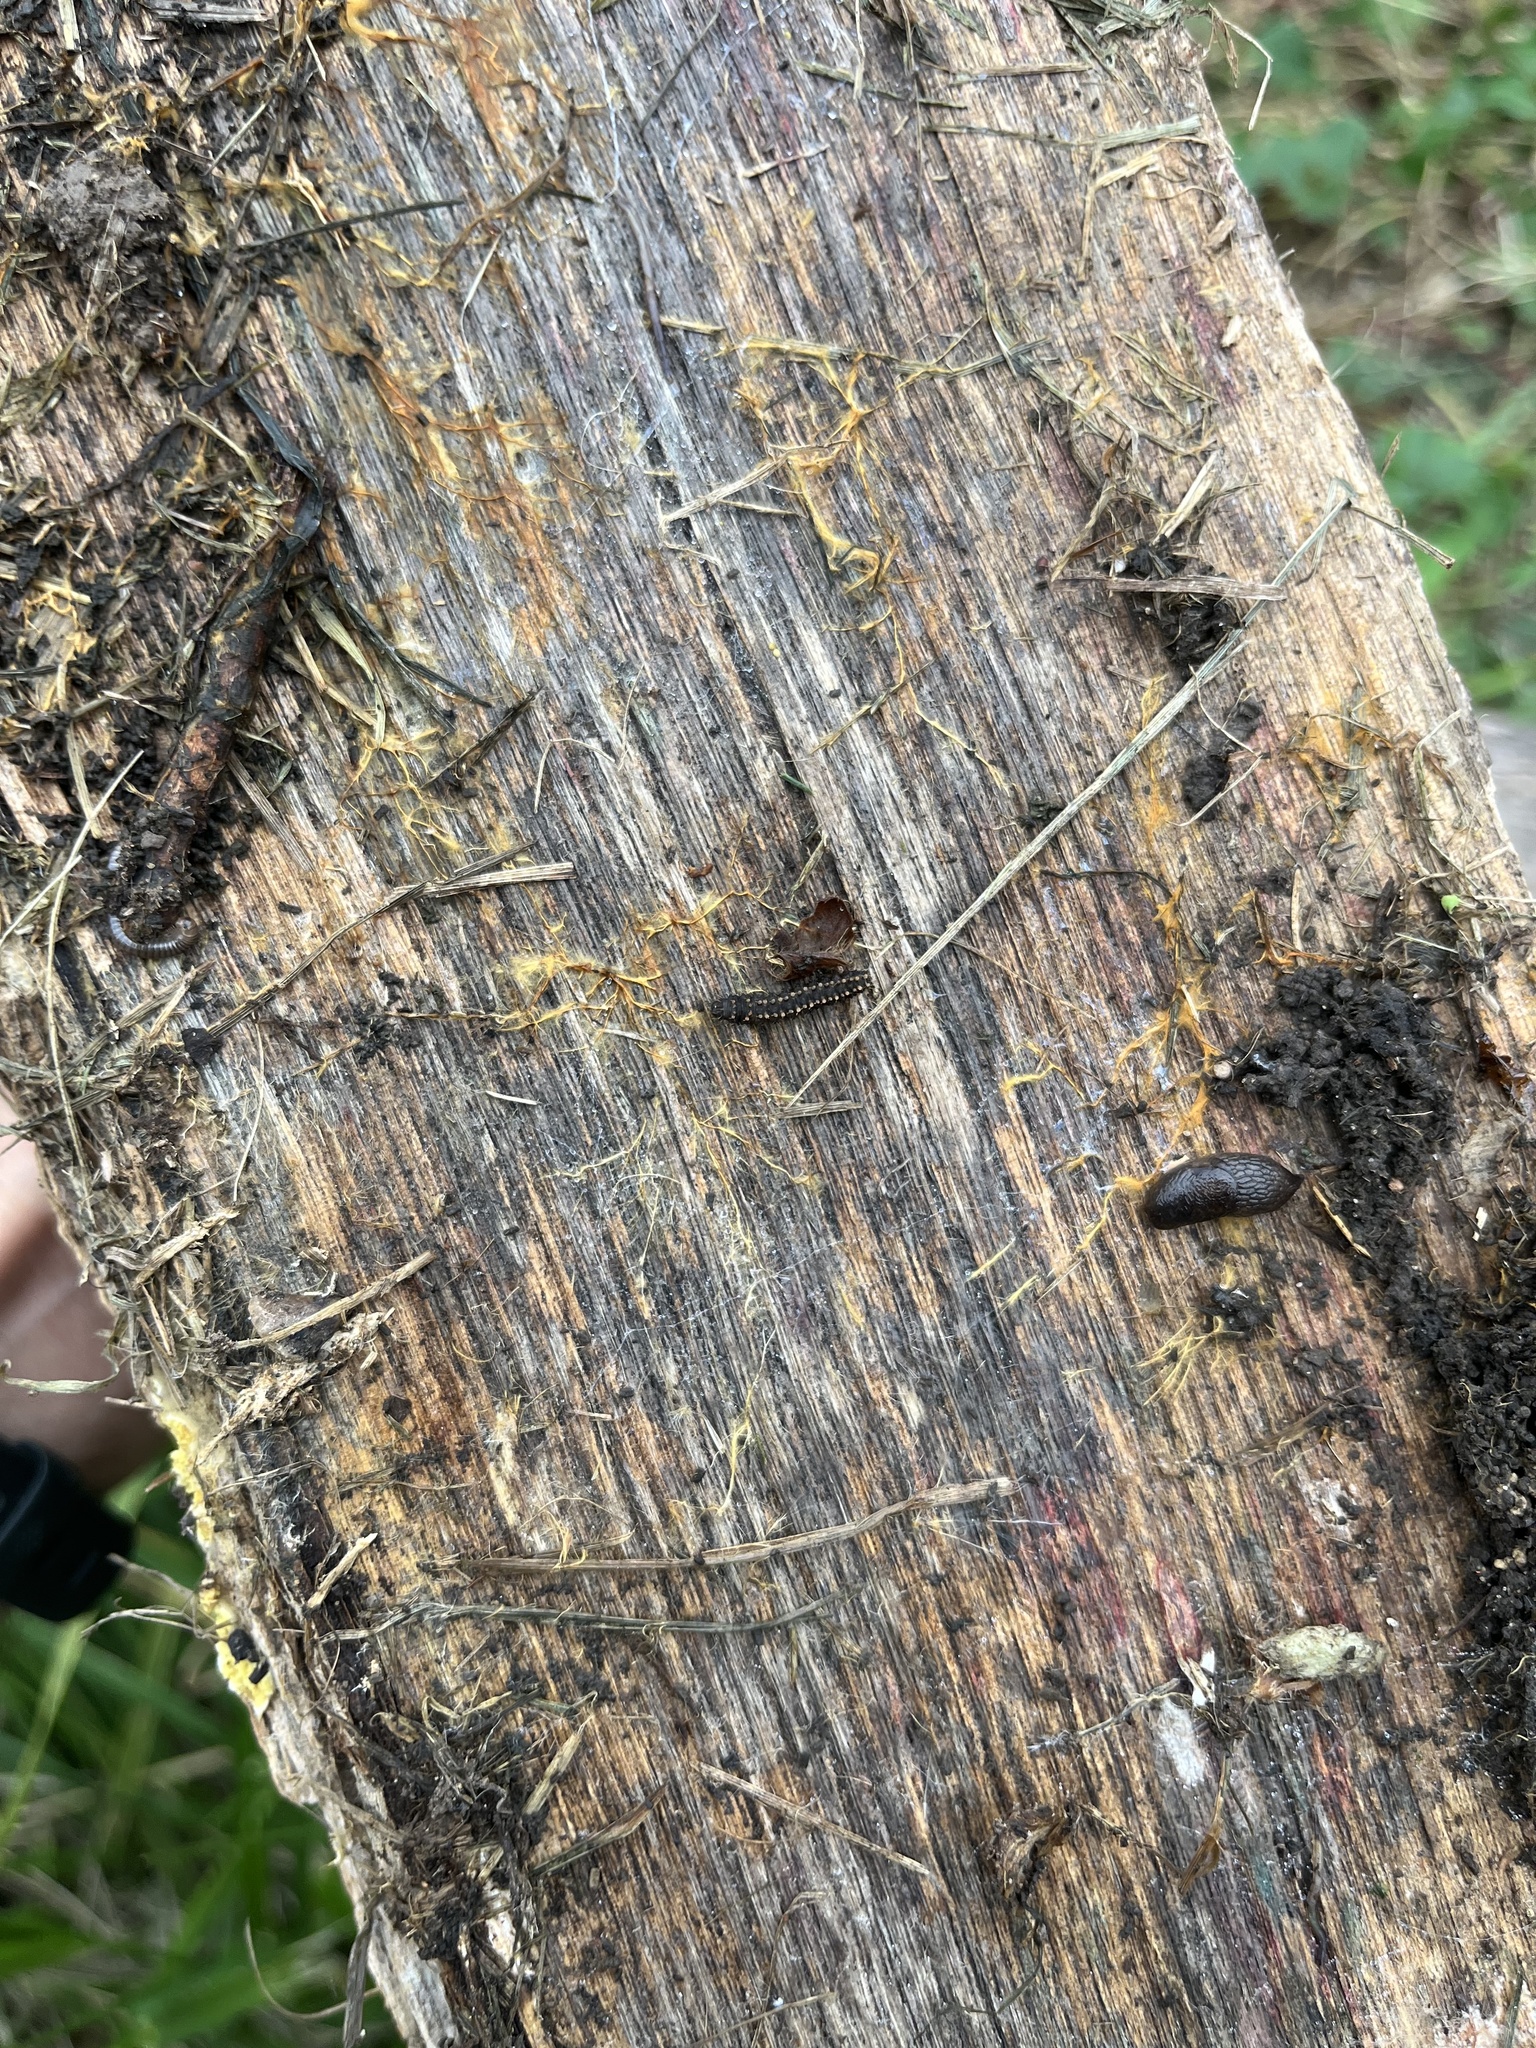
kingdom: Animalia
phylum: Arthropoda
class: Insecta
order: Lepidoptera
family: Erebidae
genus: Idia
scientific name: Idia lubricalis
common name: Twin-striped tabby
